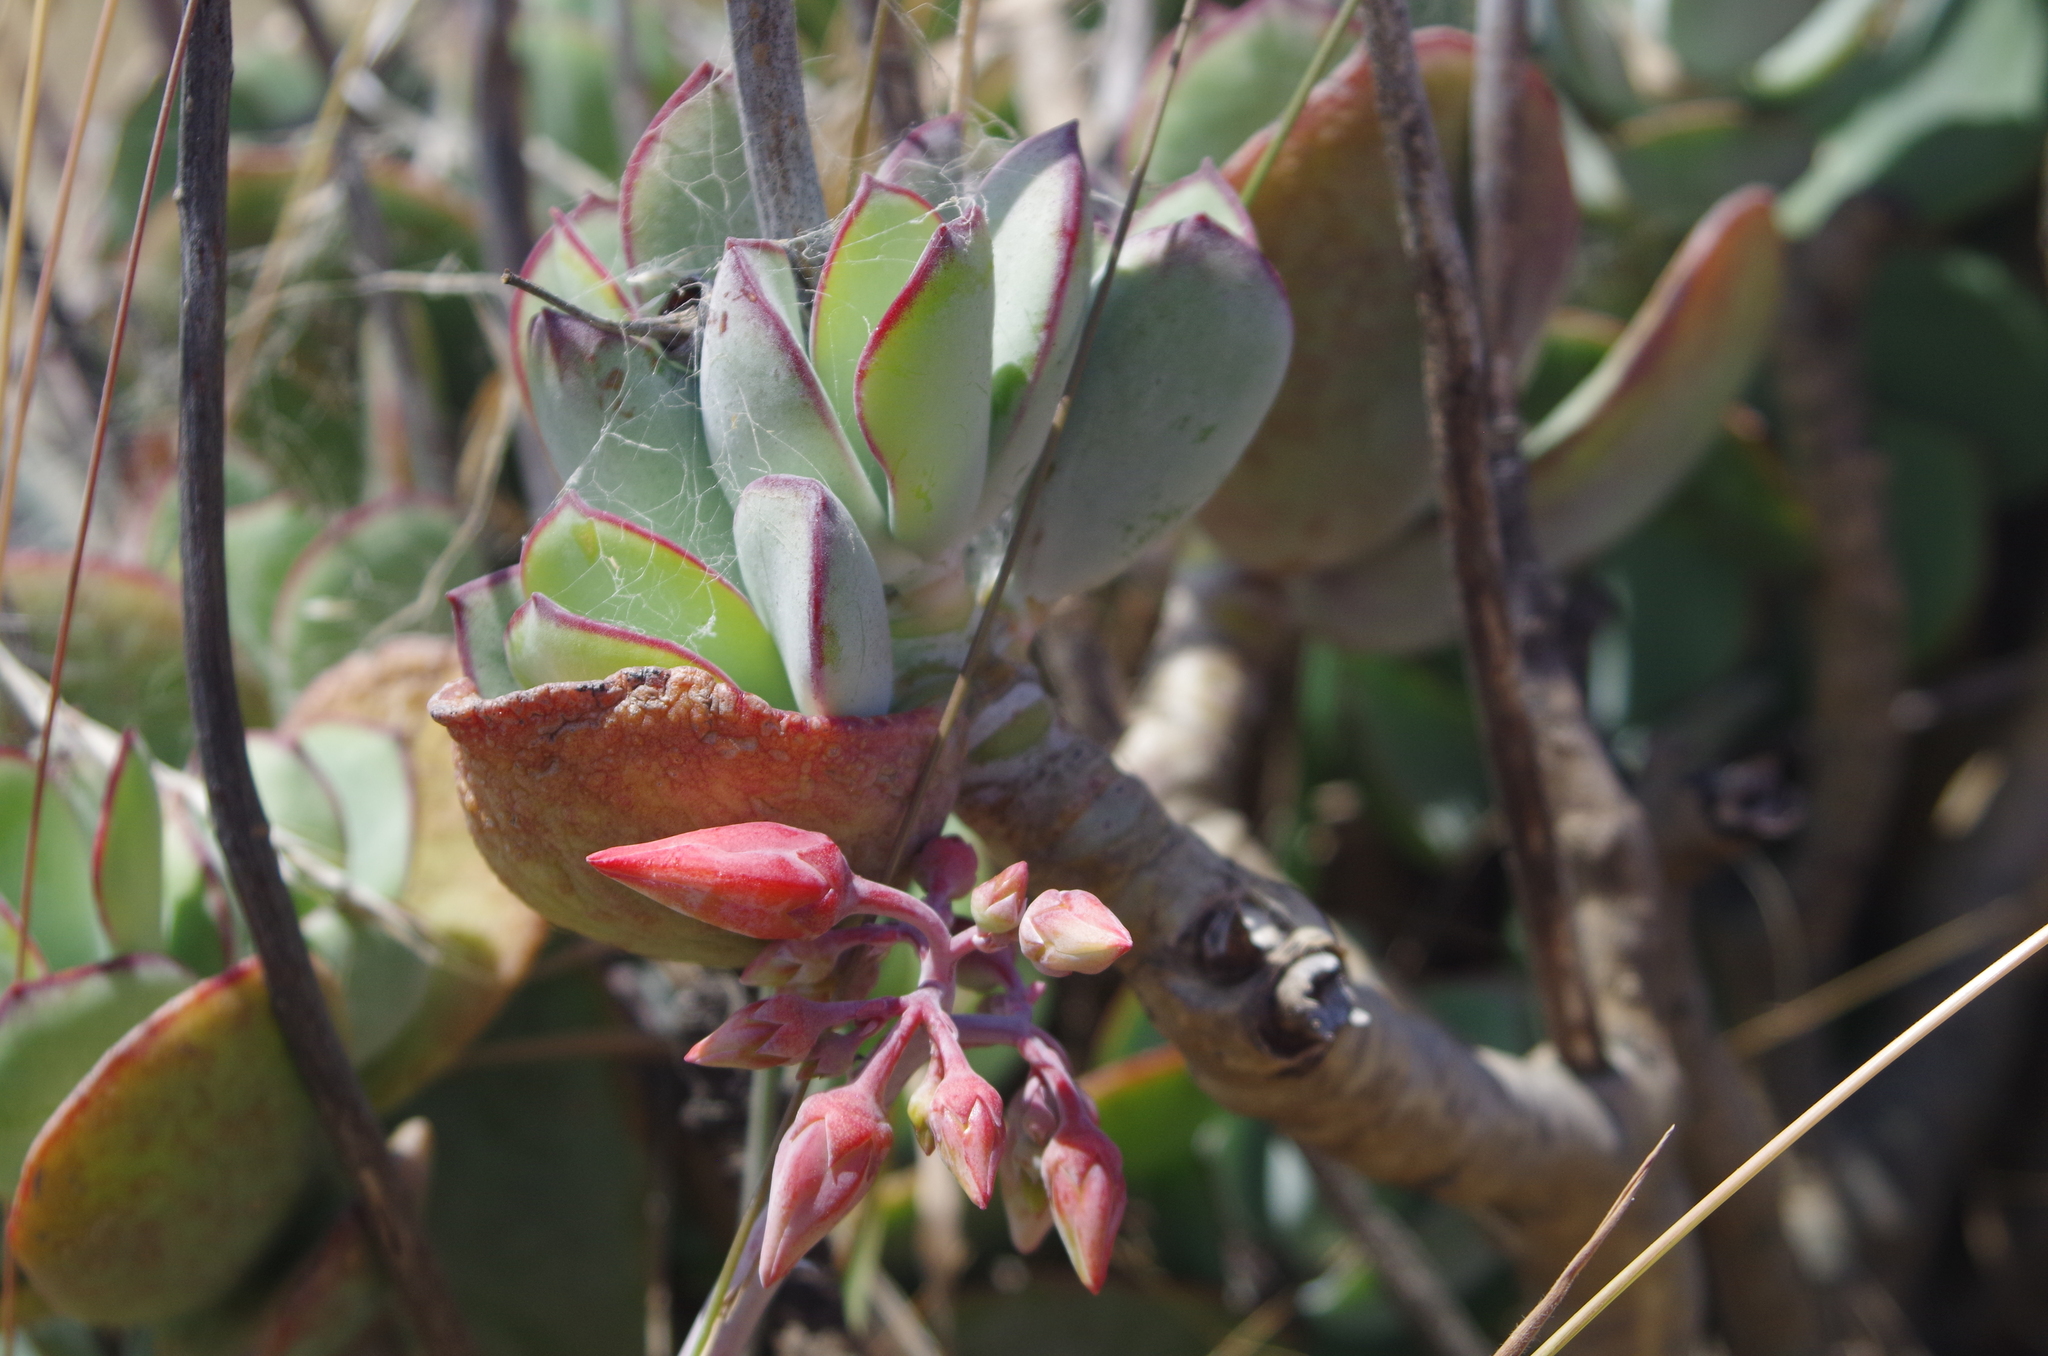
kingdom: Plantae
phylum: Tracheophyta
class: Magnoliopsida
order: Saxifragales
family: Crassulaceae
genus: Cotyledon
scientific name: Cotyledon orbiculata
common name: Pig's ear
